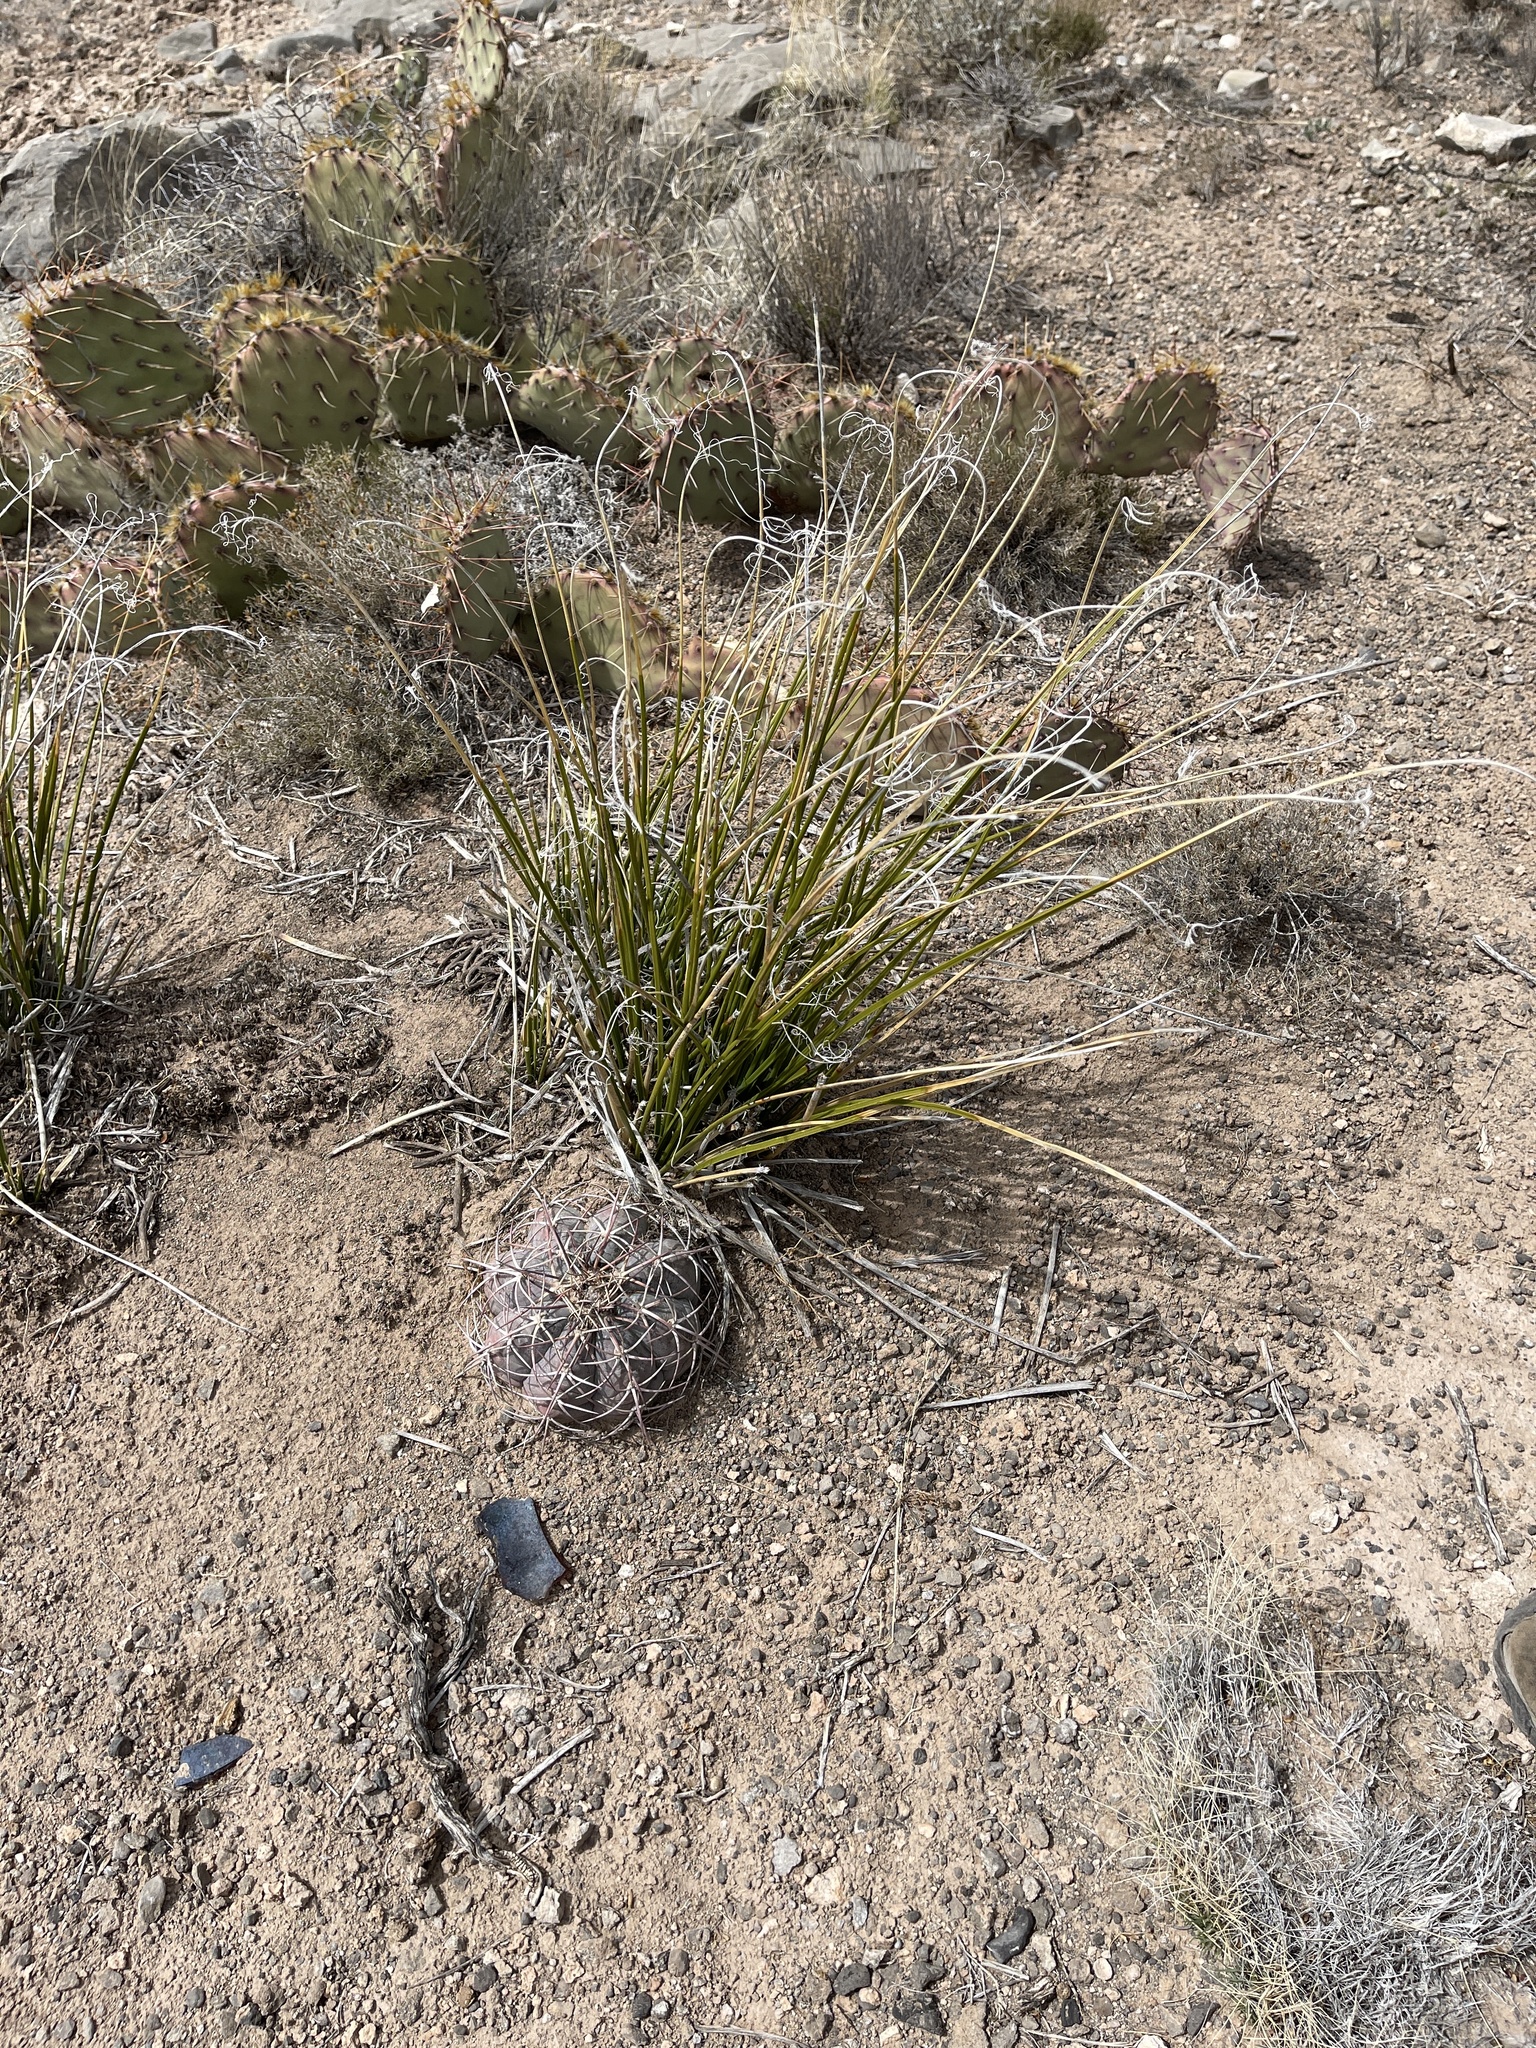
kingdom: Plantae
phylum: Tracheophyta
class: Magnoliopsida
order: Caryophyllales
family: Cactaceae
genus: Echinocactus
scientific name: Echinocactus horizonthalonius
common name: Devilshead
